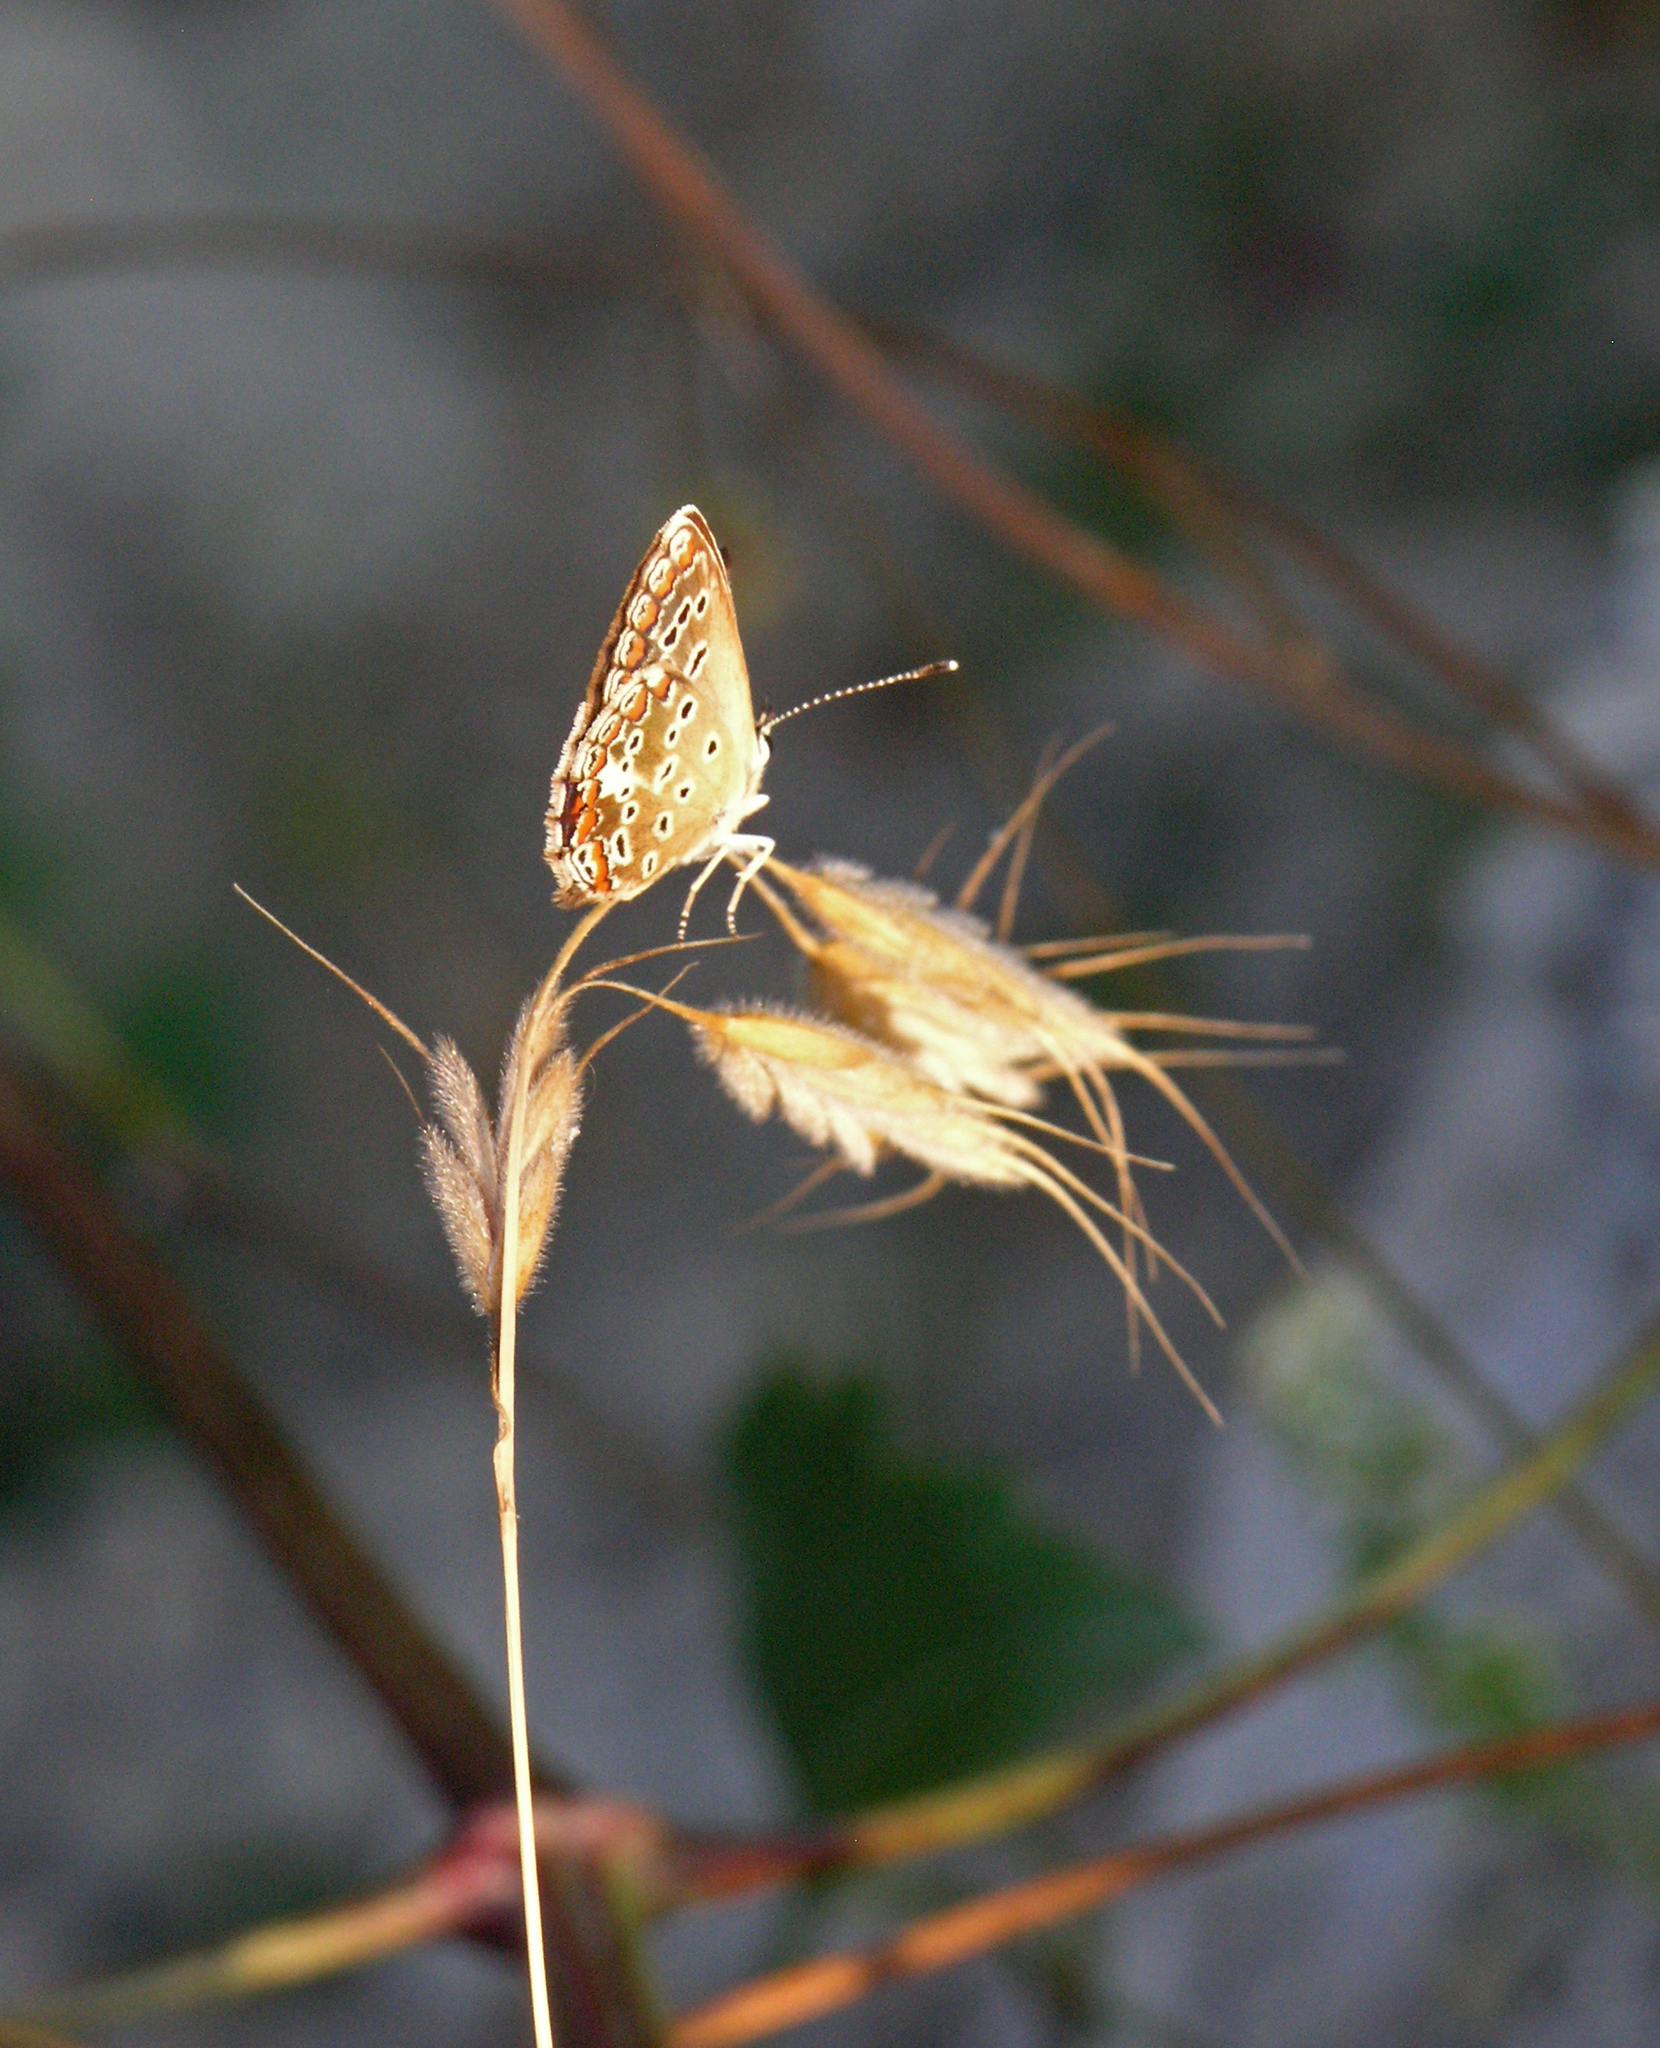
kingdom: Animalia
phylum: Arthropoda
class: Insecta
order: Lepidoptera
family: Lycaenidae
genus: Aricia
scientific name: Aricia agestis
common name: Brown argus
